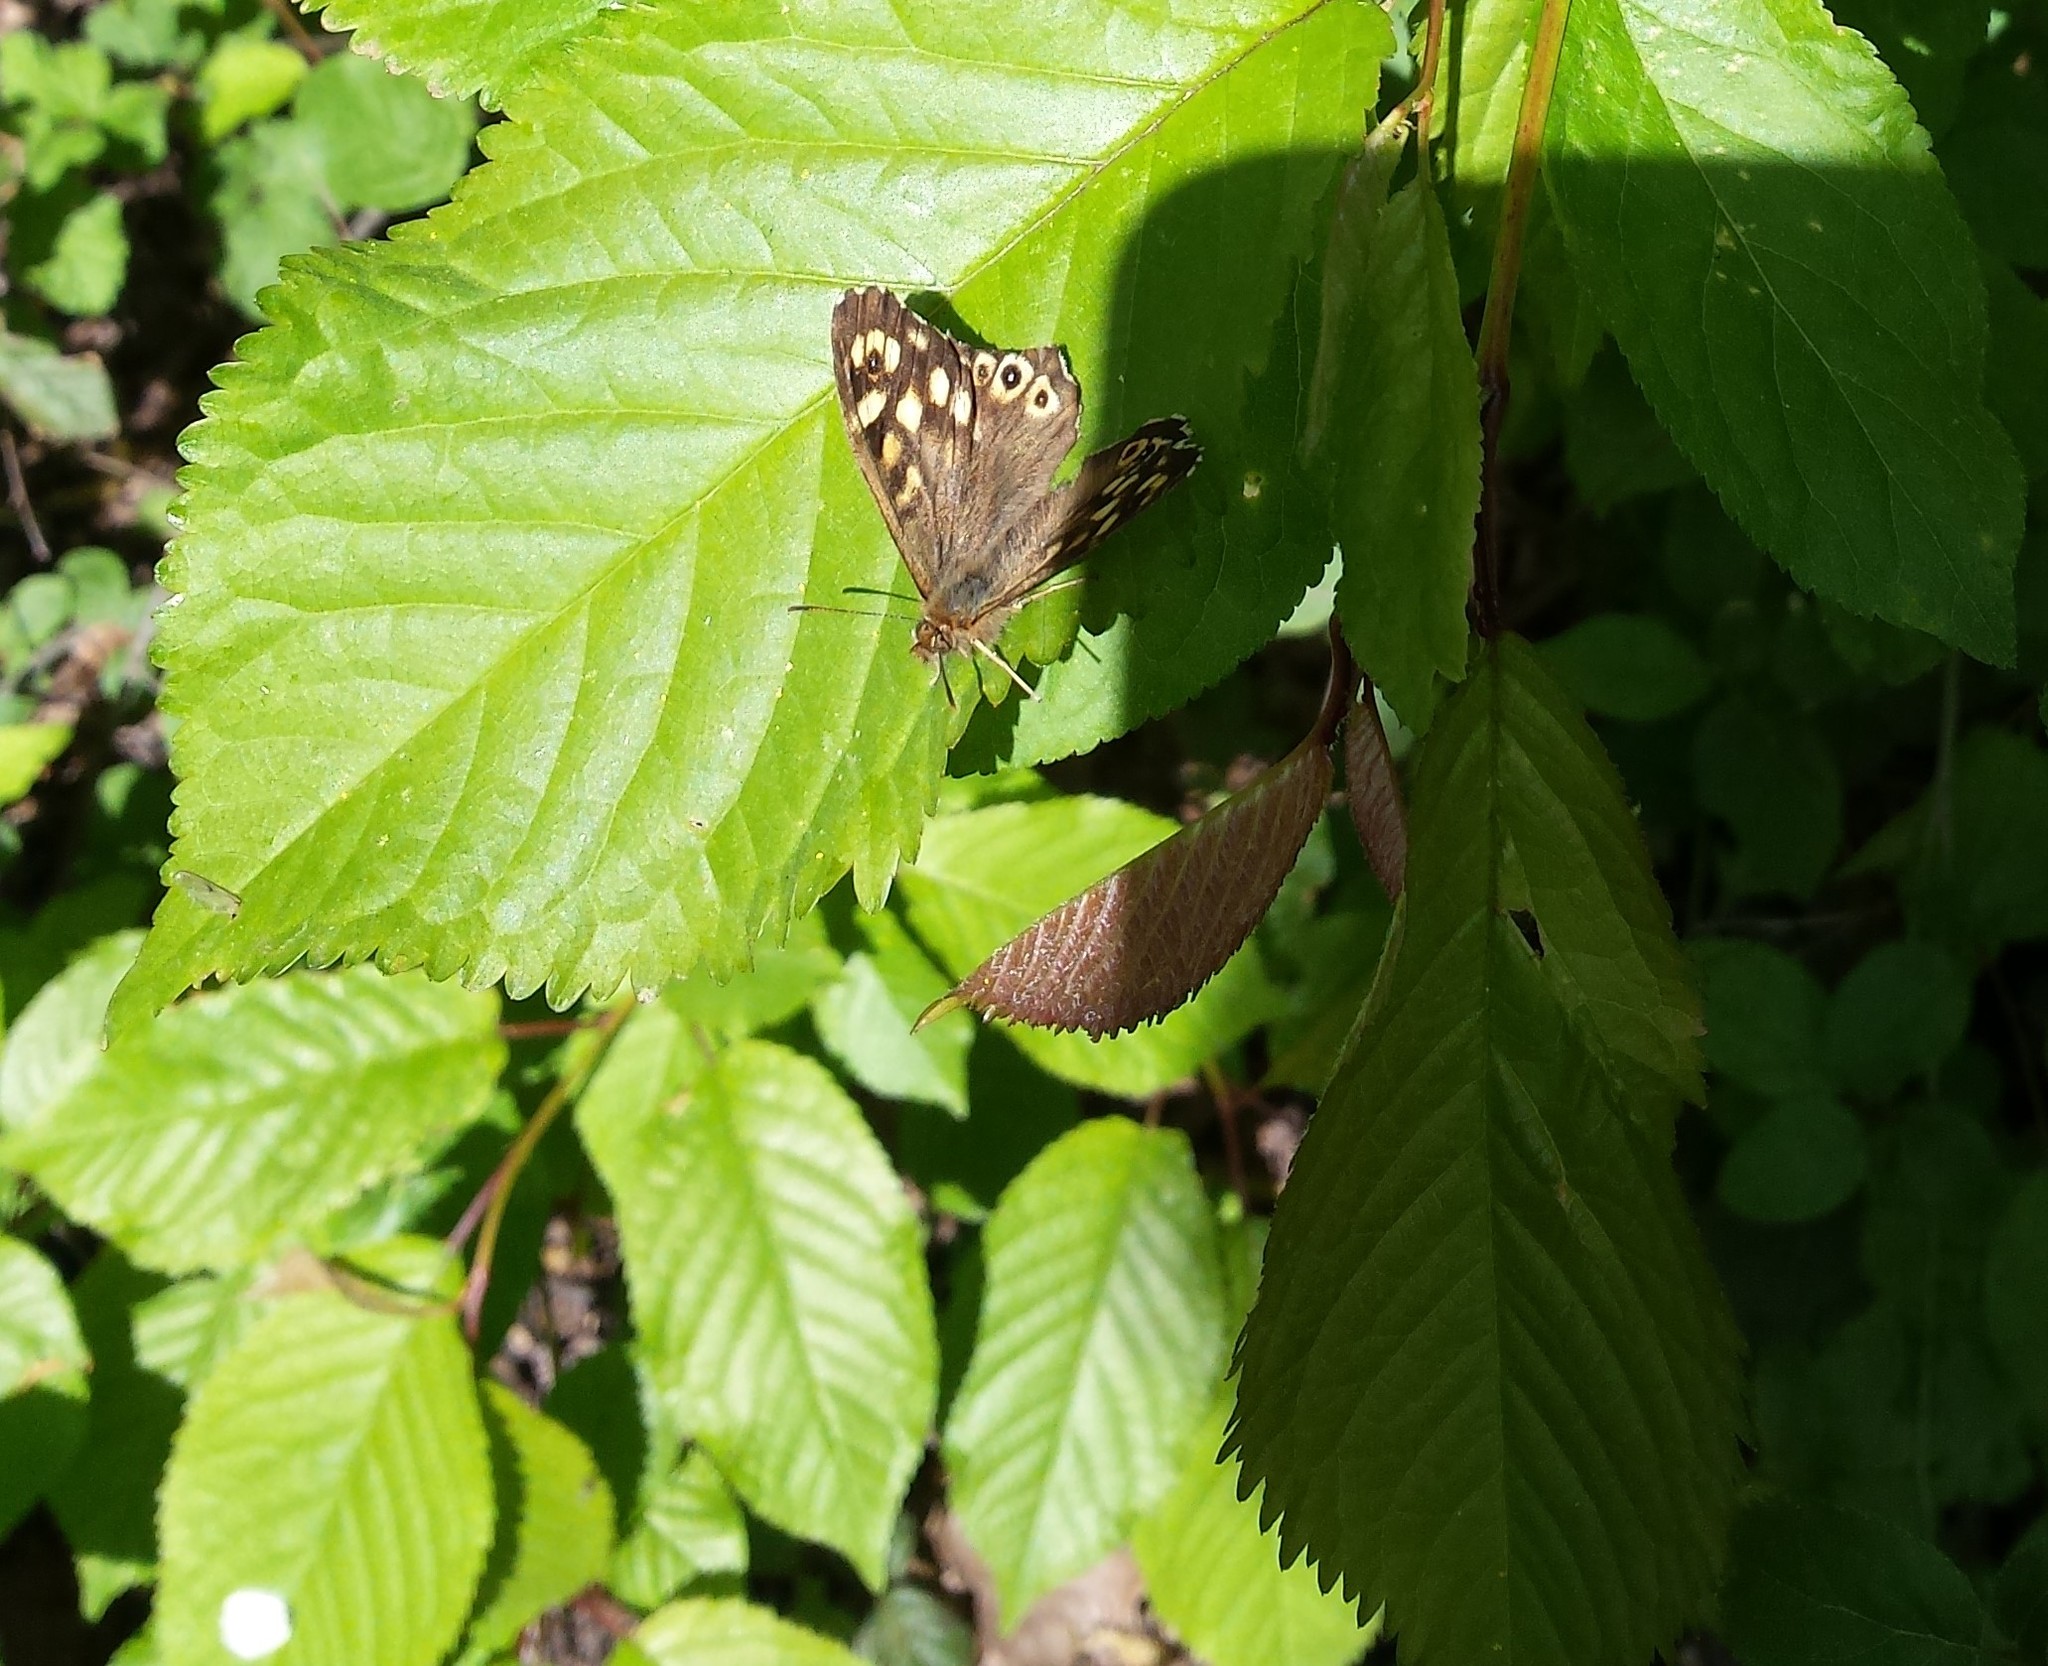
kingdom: Animalia
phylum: Arthropoda
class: Insecta
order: Lepidoptera
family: Nymphalidae
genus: Pararge
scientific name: Pararge aegeria
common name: Speckled wood
